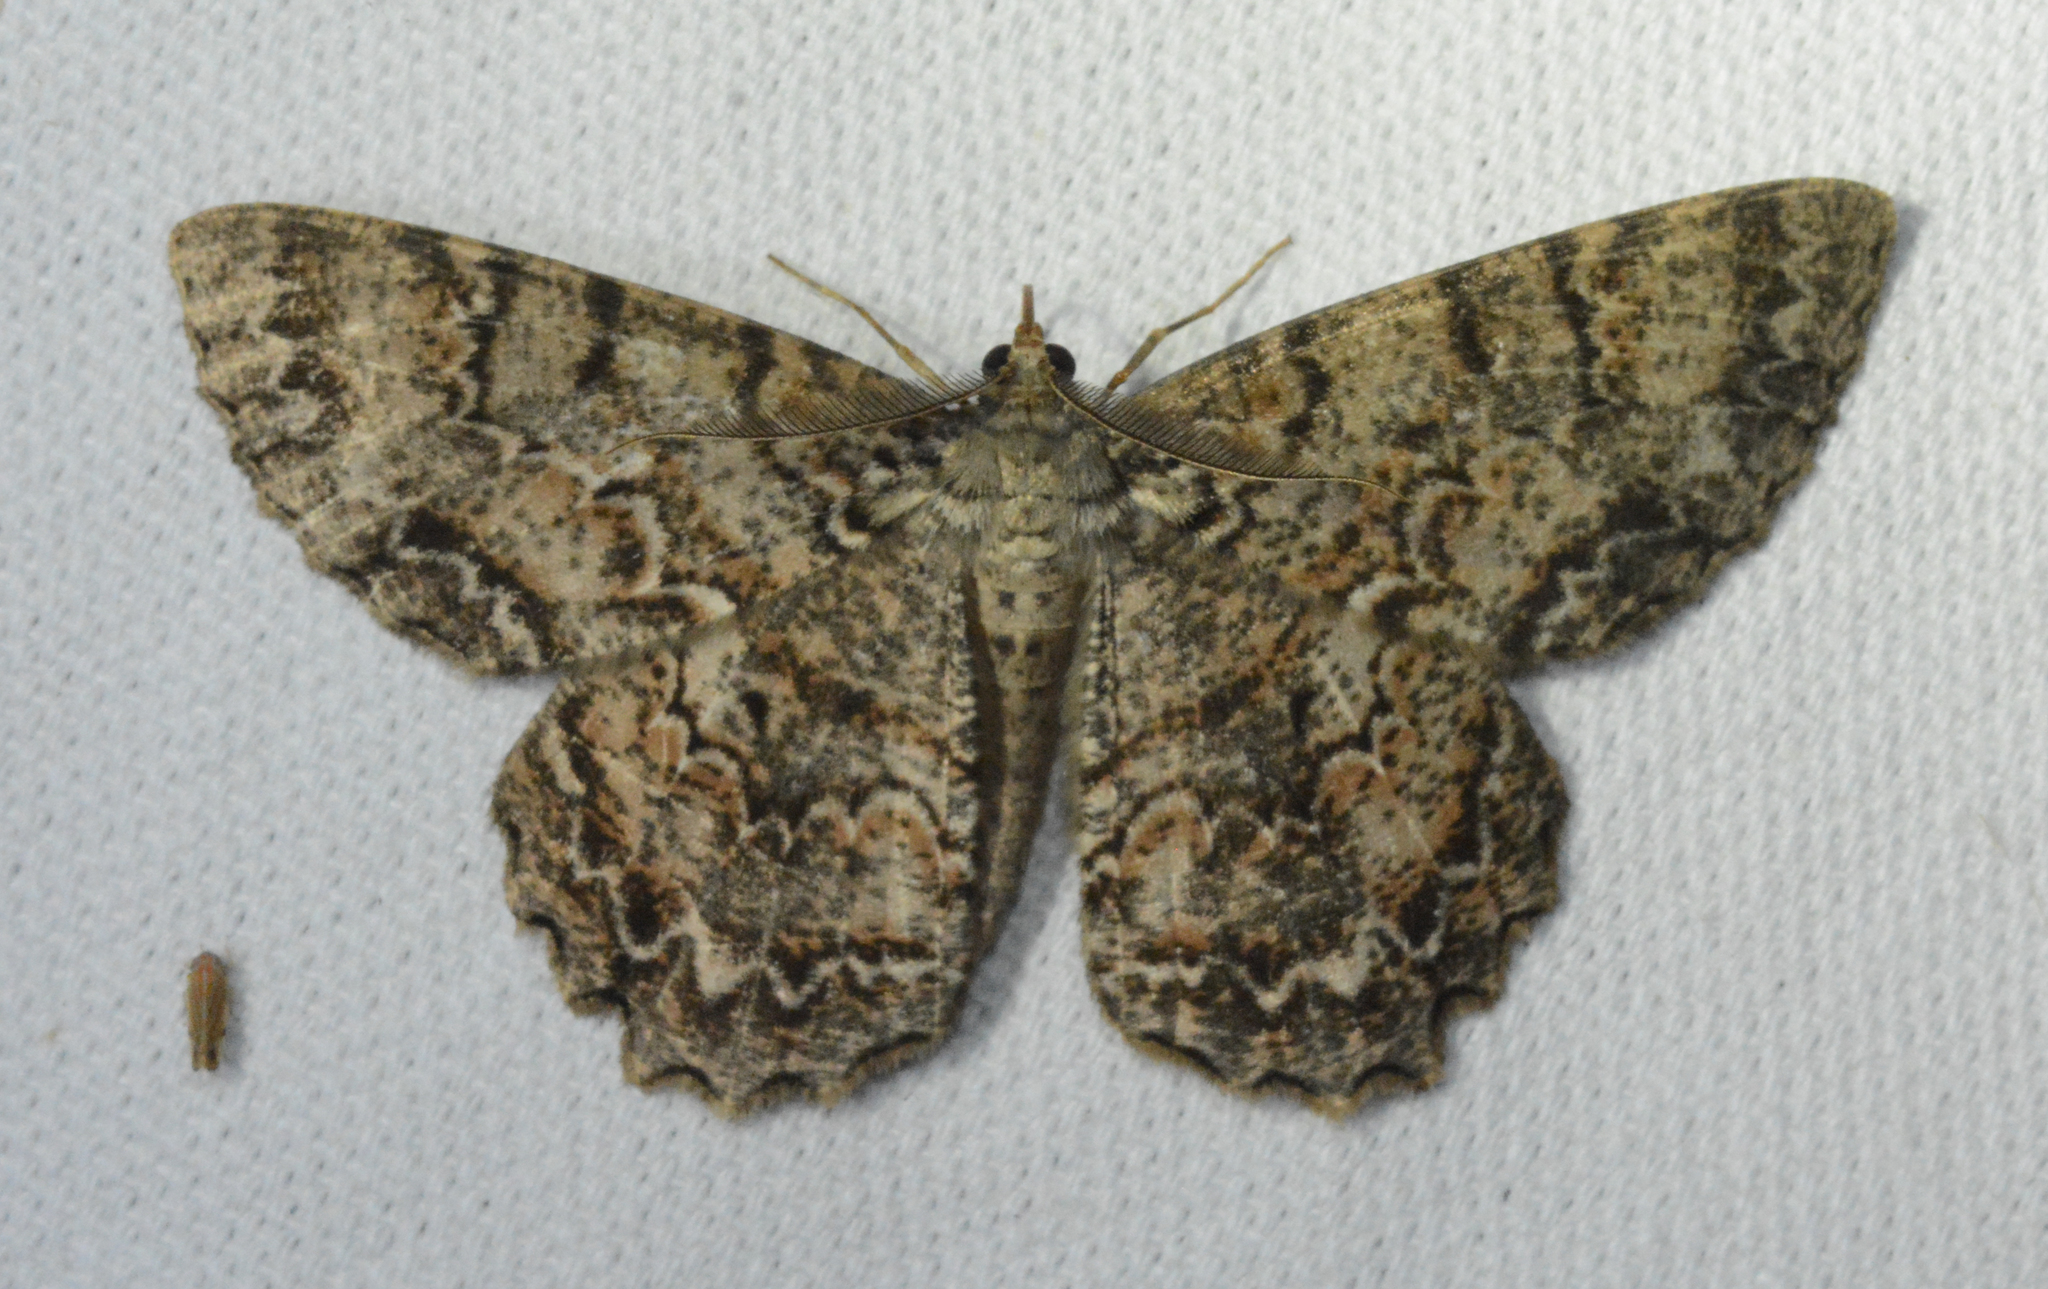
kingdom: Animalia
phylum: Arthropoda
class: Insecta
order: Lepidoptera
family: Geometridae
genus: Epimecis
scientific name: Epimecis hortaria
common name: Tulip-tree beauty
